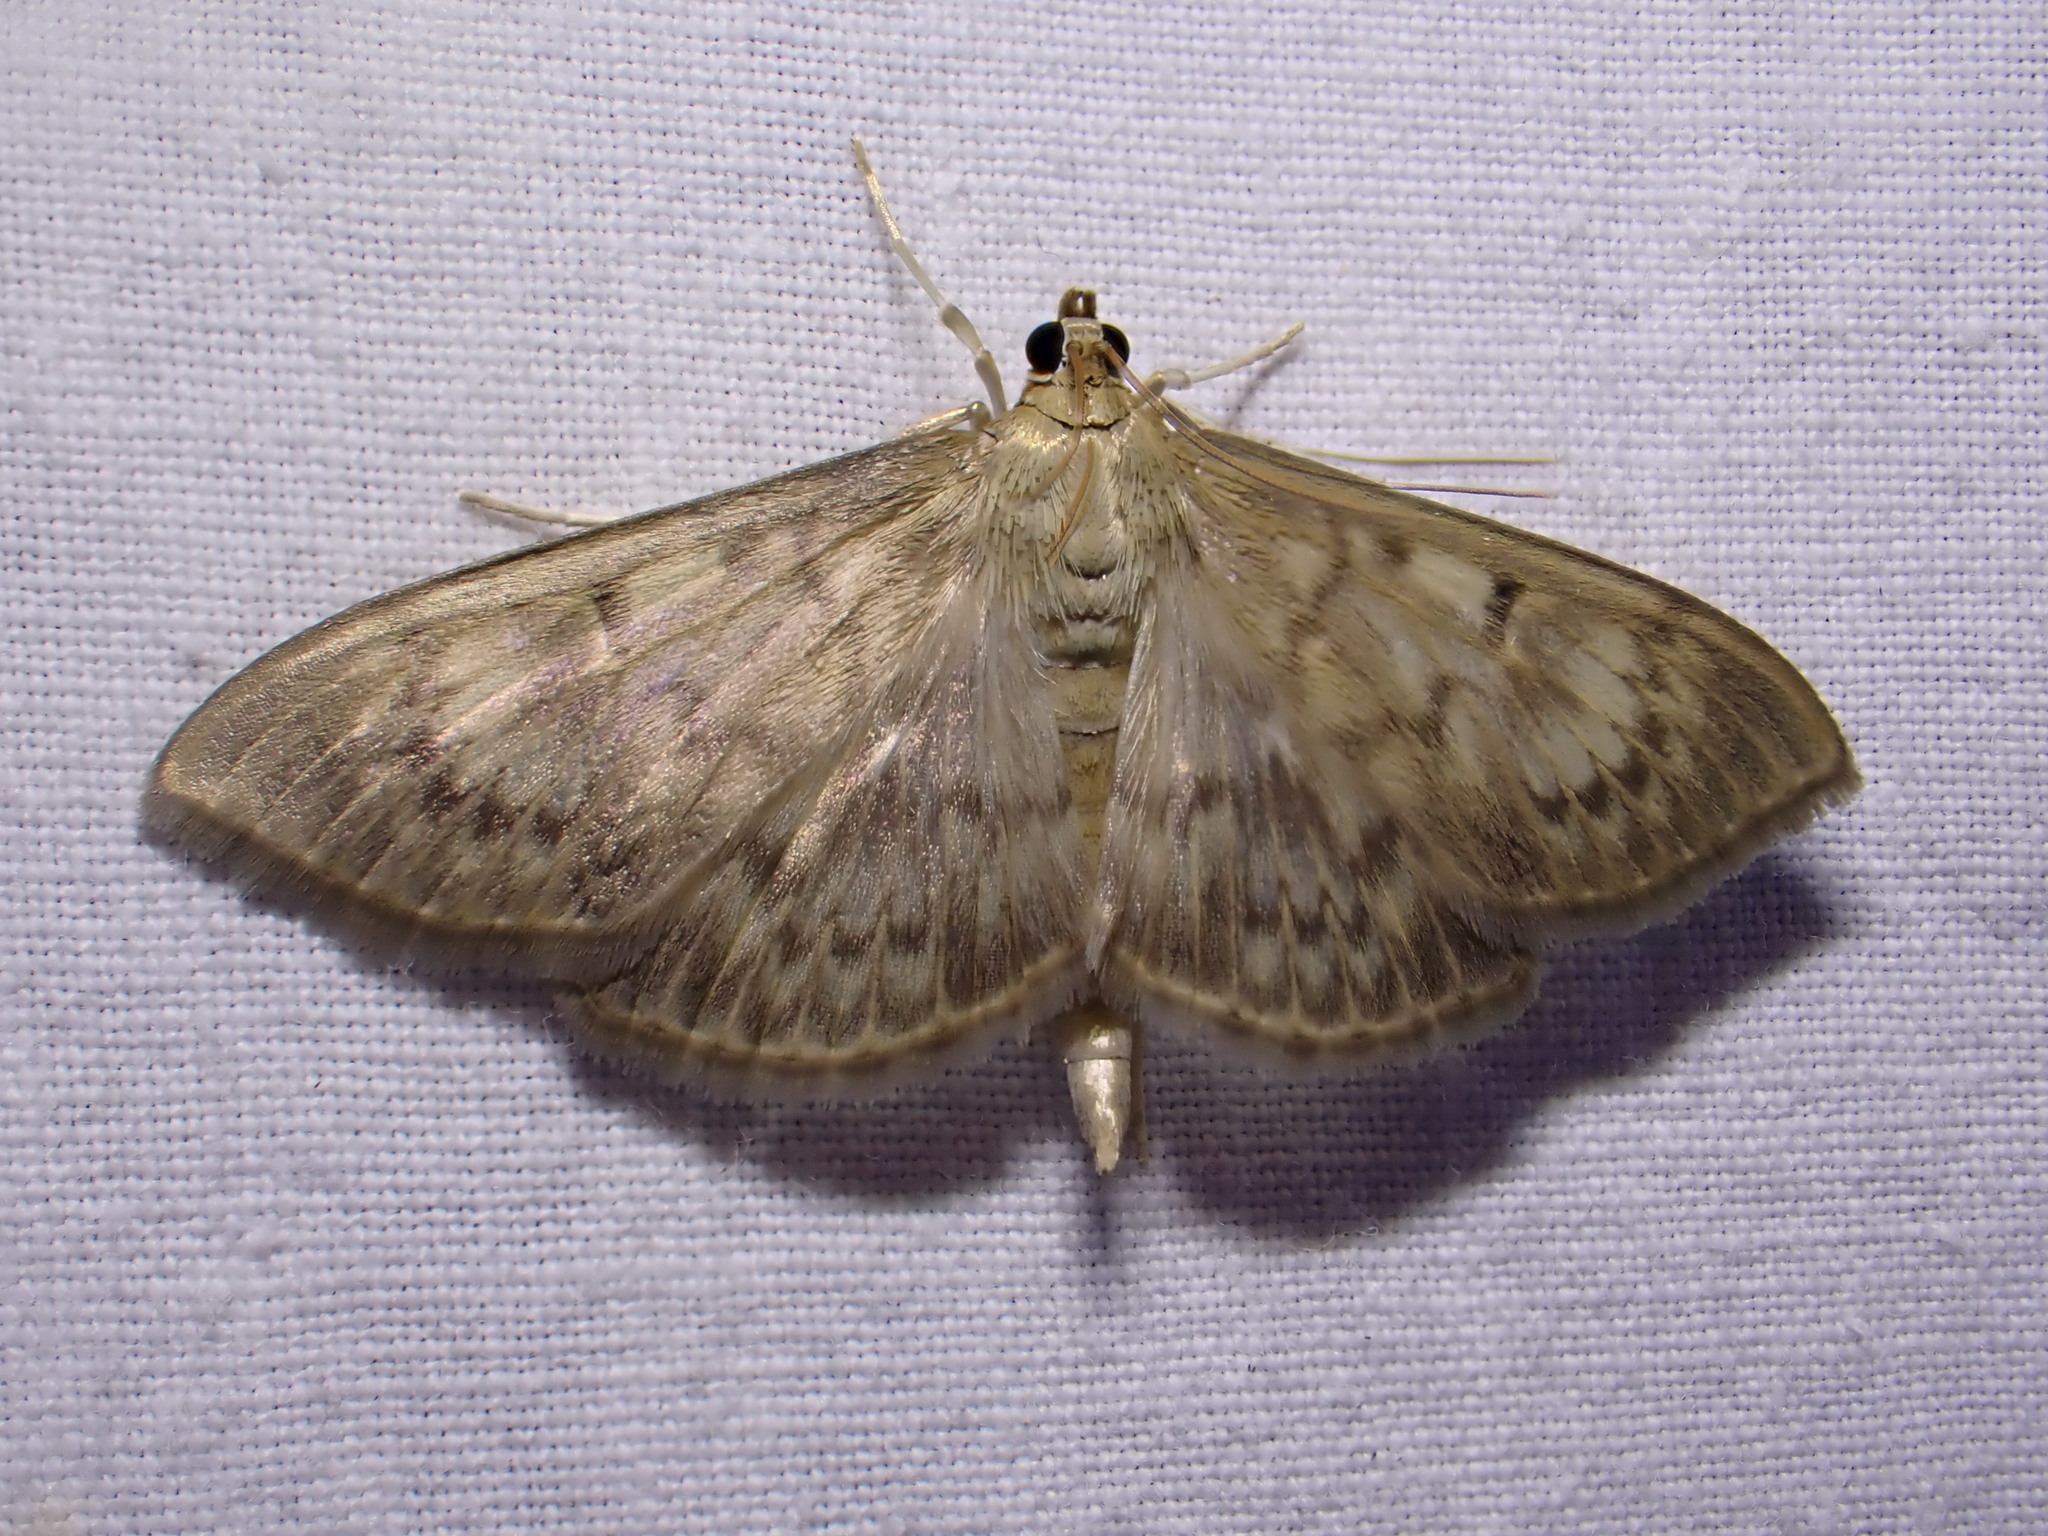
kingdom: Animalia
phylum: Arthropoda
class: Insecta
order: Lepidoptera
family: Crambidae
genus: Patania
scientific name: Patania ruralis
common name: Mother of pearl
